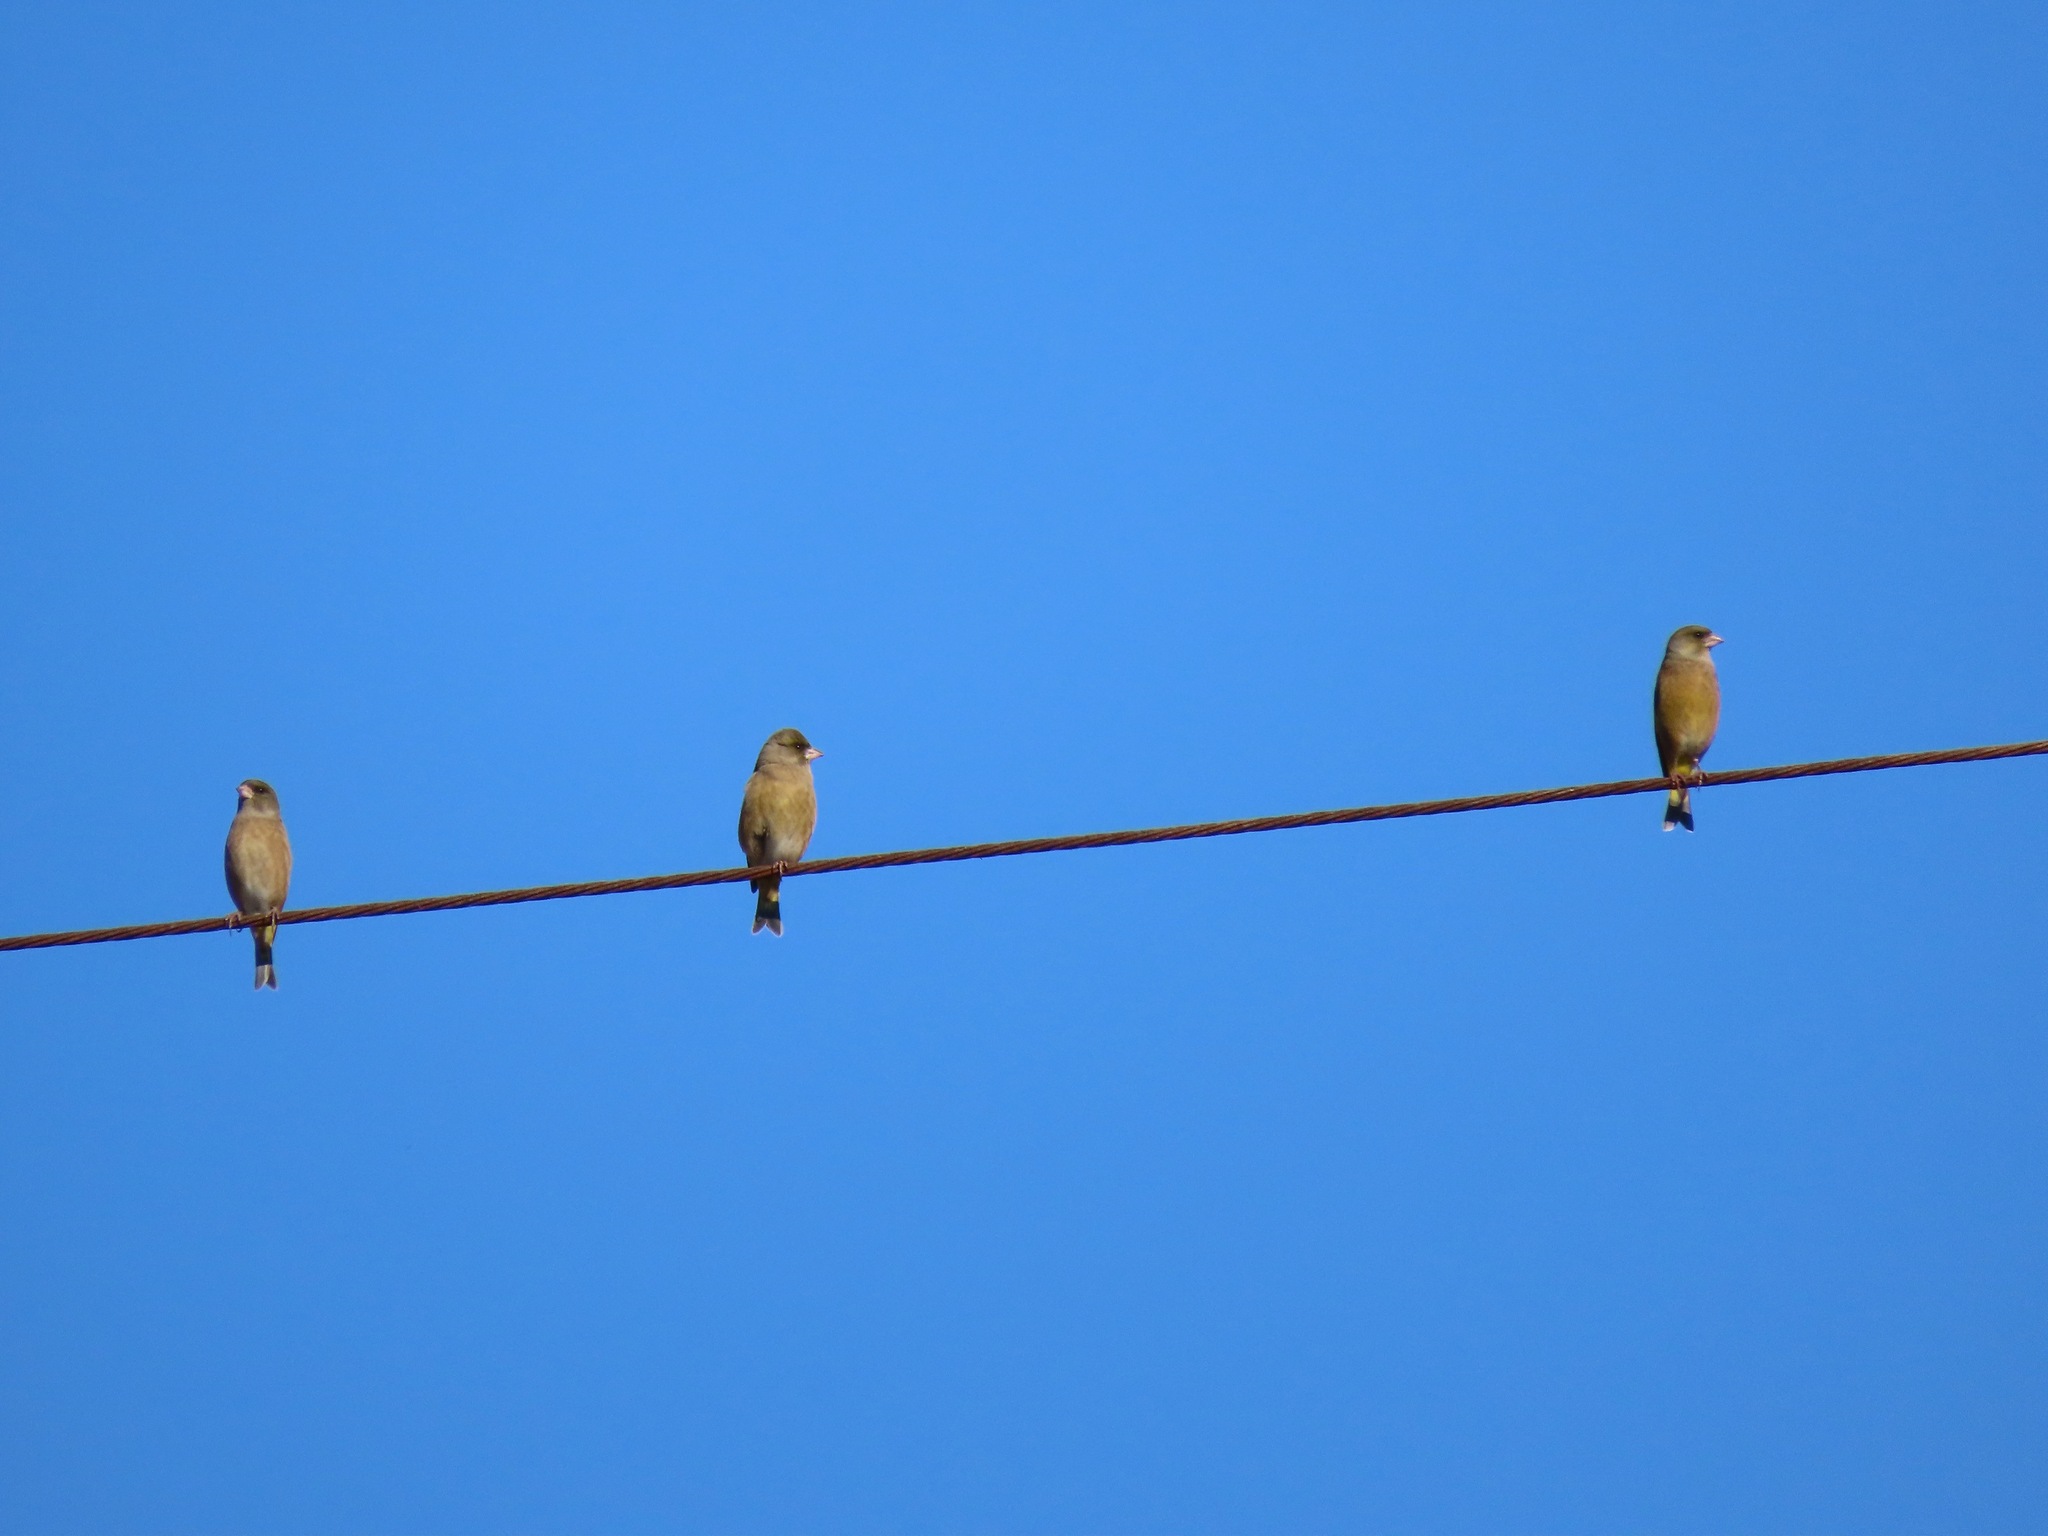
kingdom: Plantae
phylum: Tracheophyta
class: Liliopsida
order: Poales
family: Poaceae
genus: Chloris
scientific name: Chloris sinica
